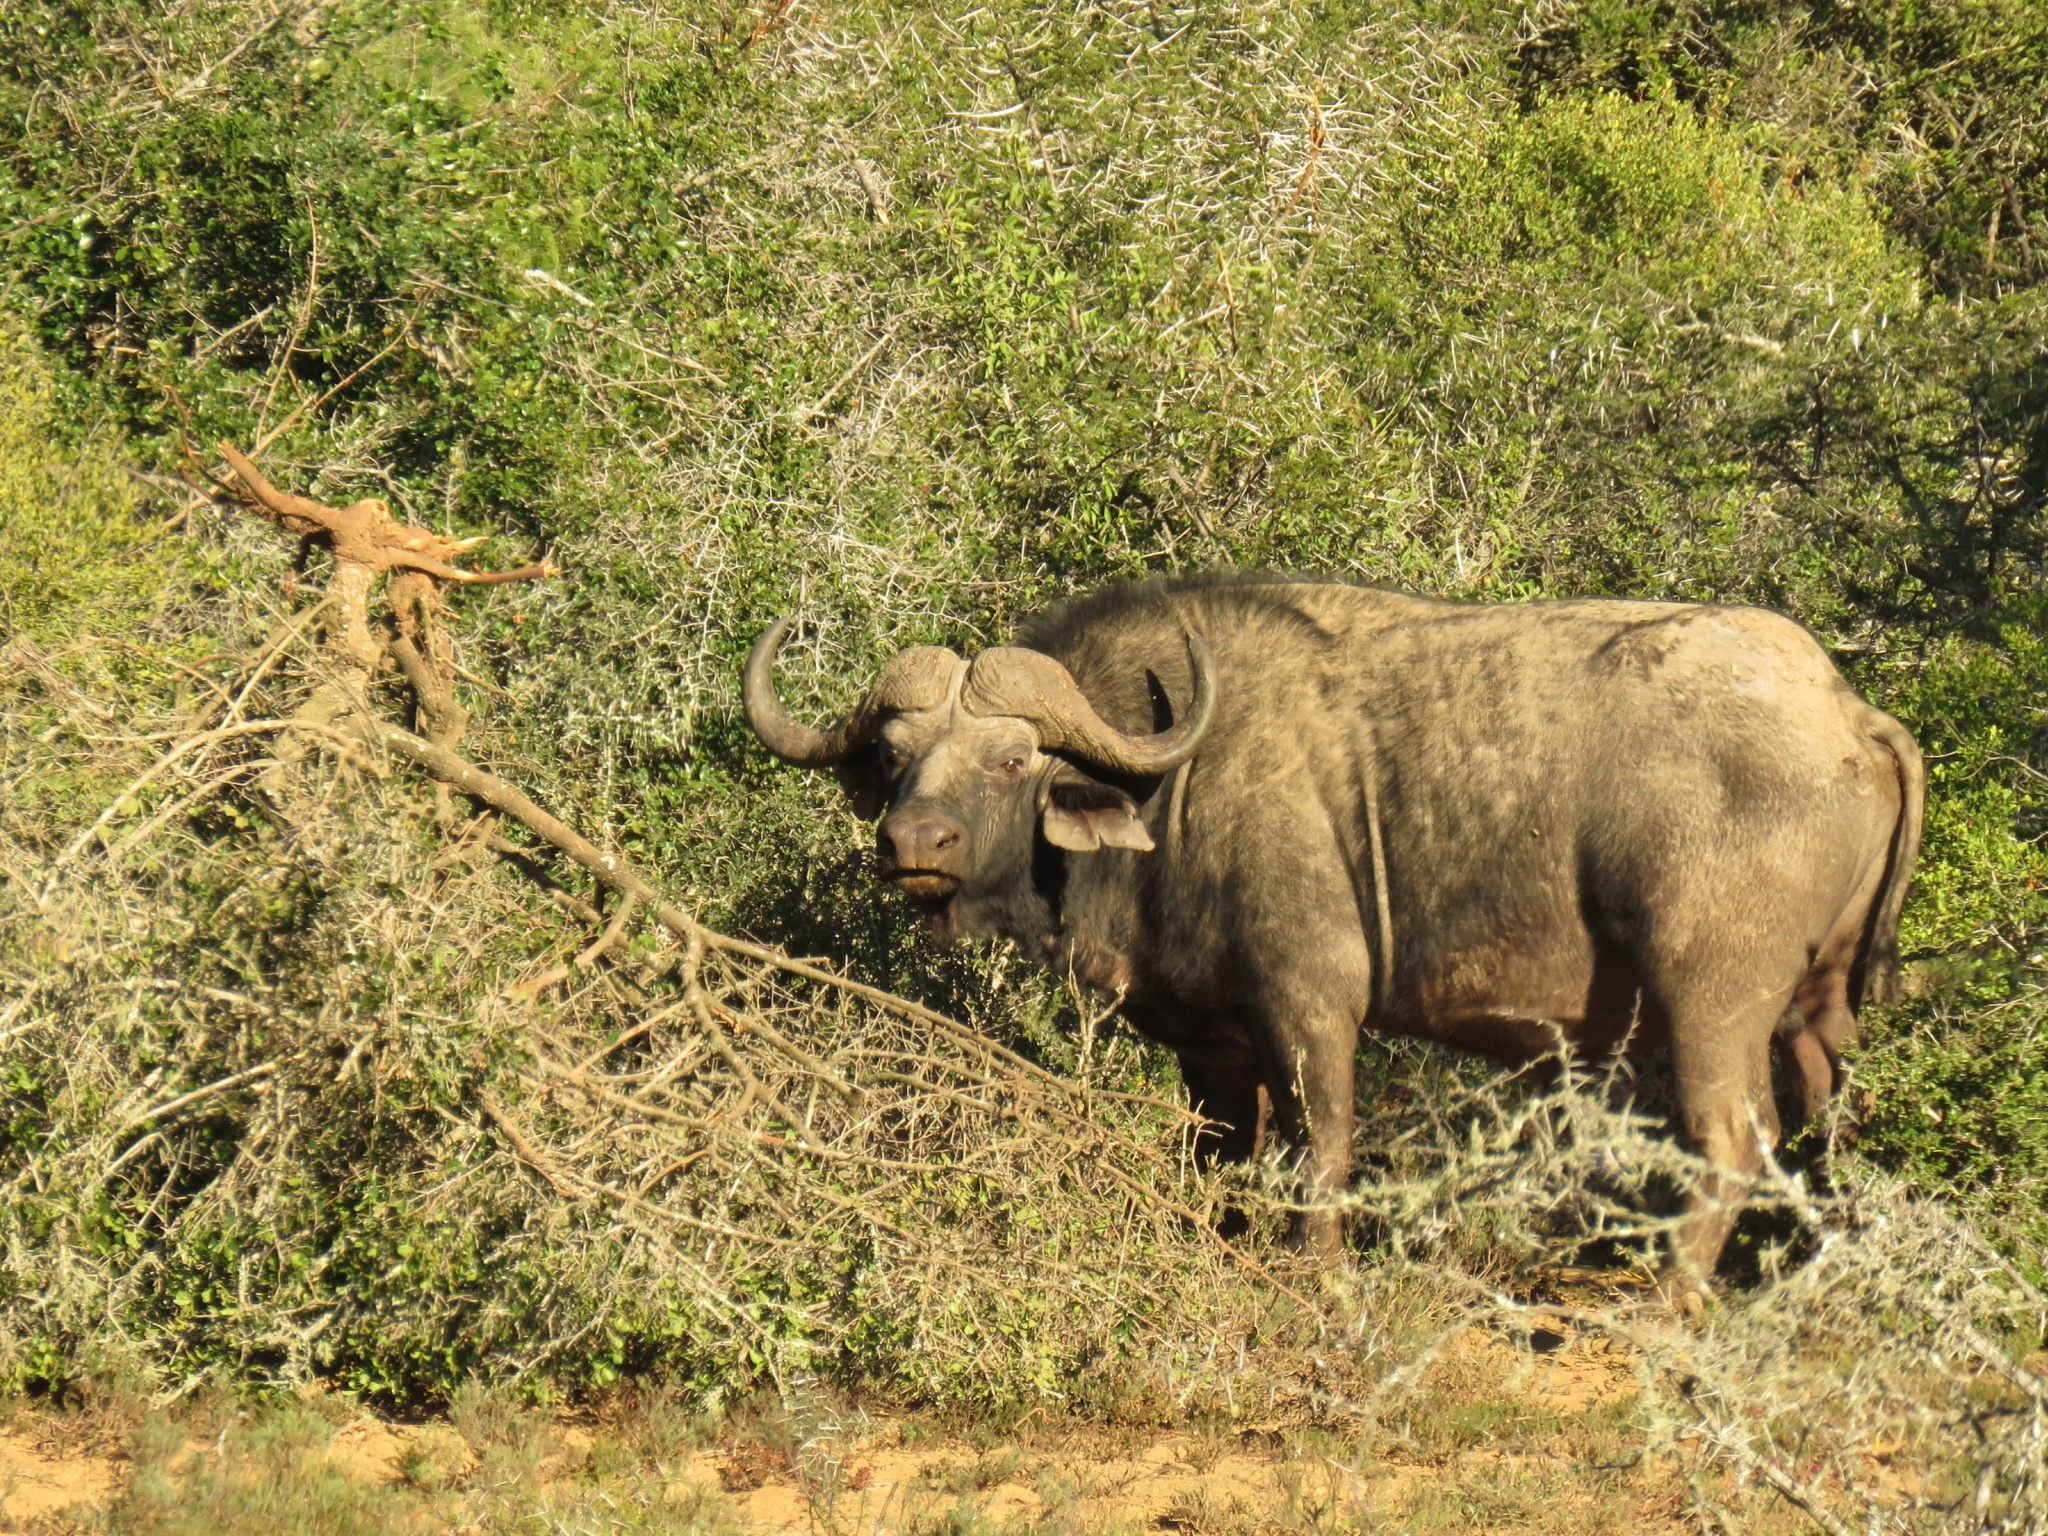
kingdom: Animalia
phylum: Chordata
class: Mammalia
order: Artiodactyla
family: Bovidae
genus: Syncerus
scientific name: Syncerus caffer
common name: African buffalo
